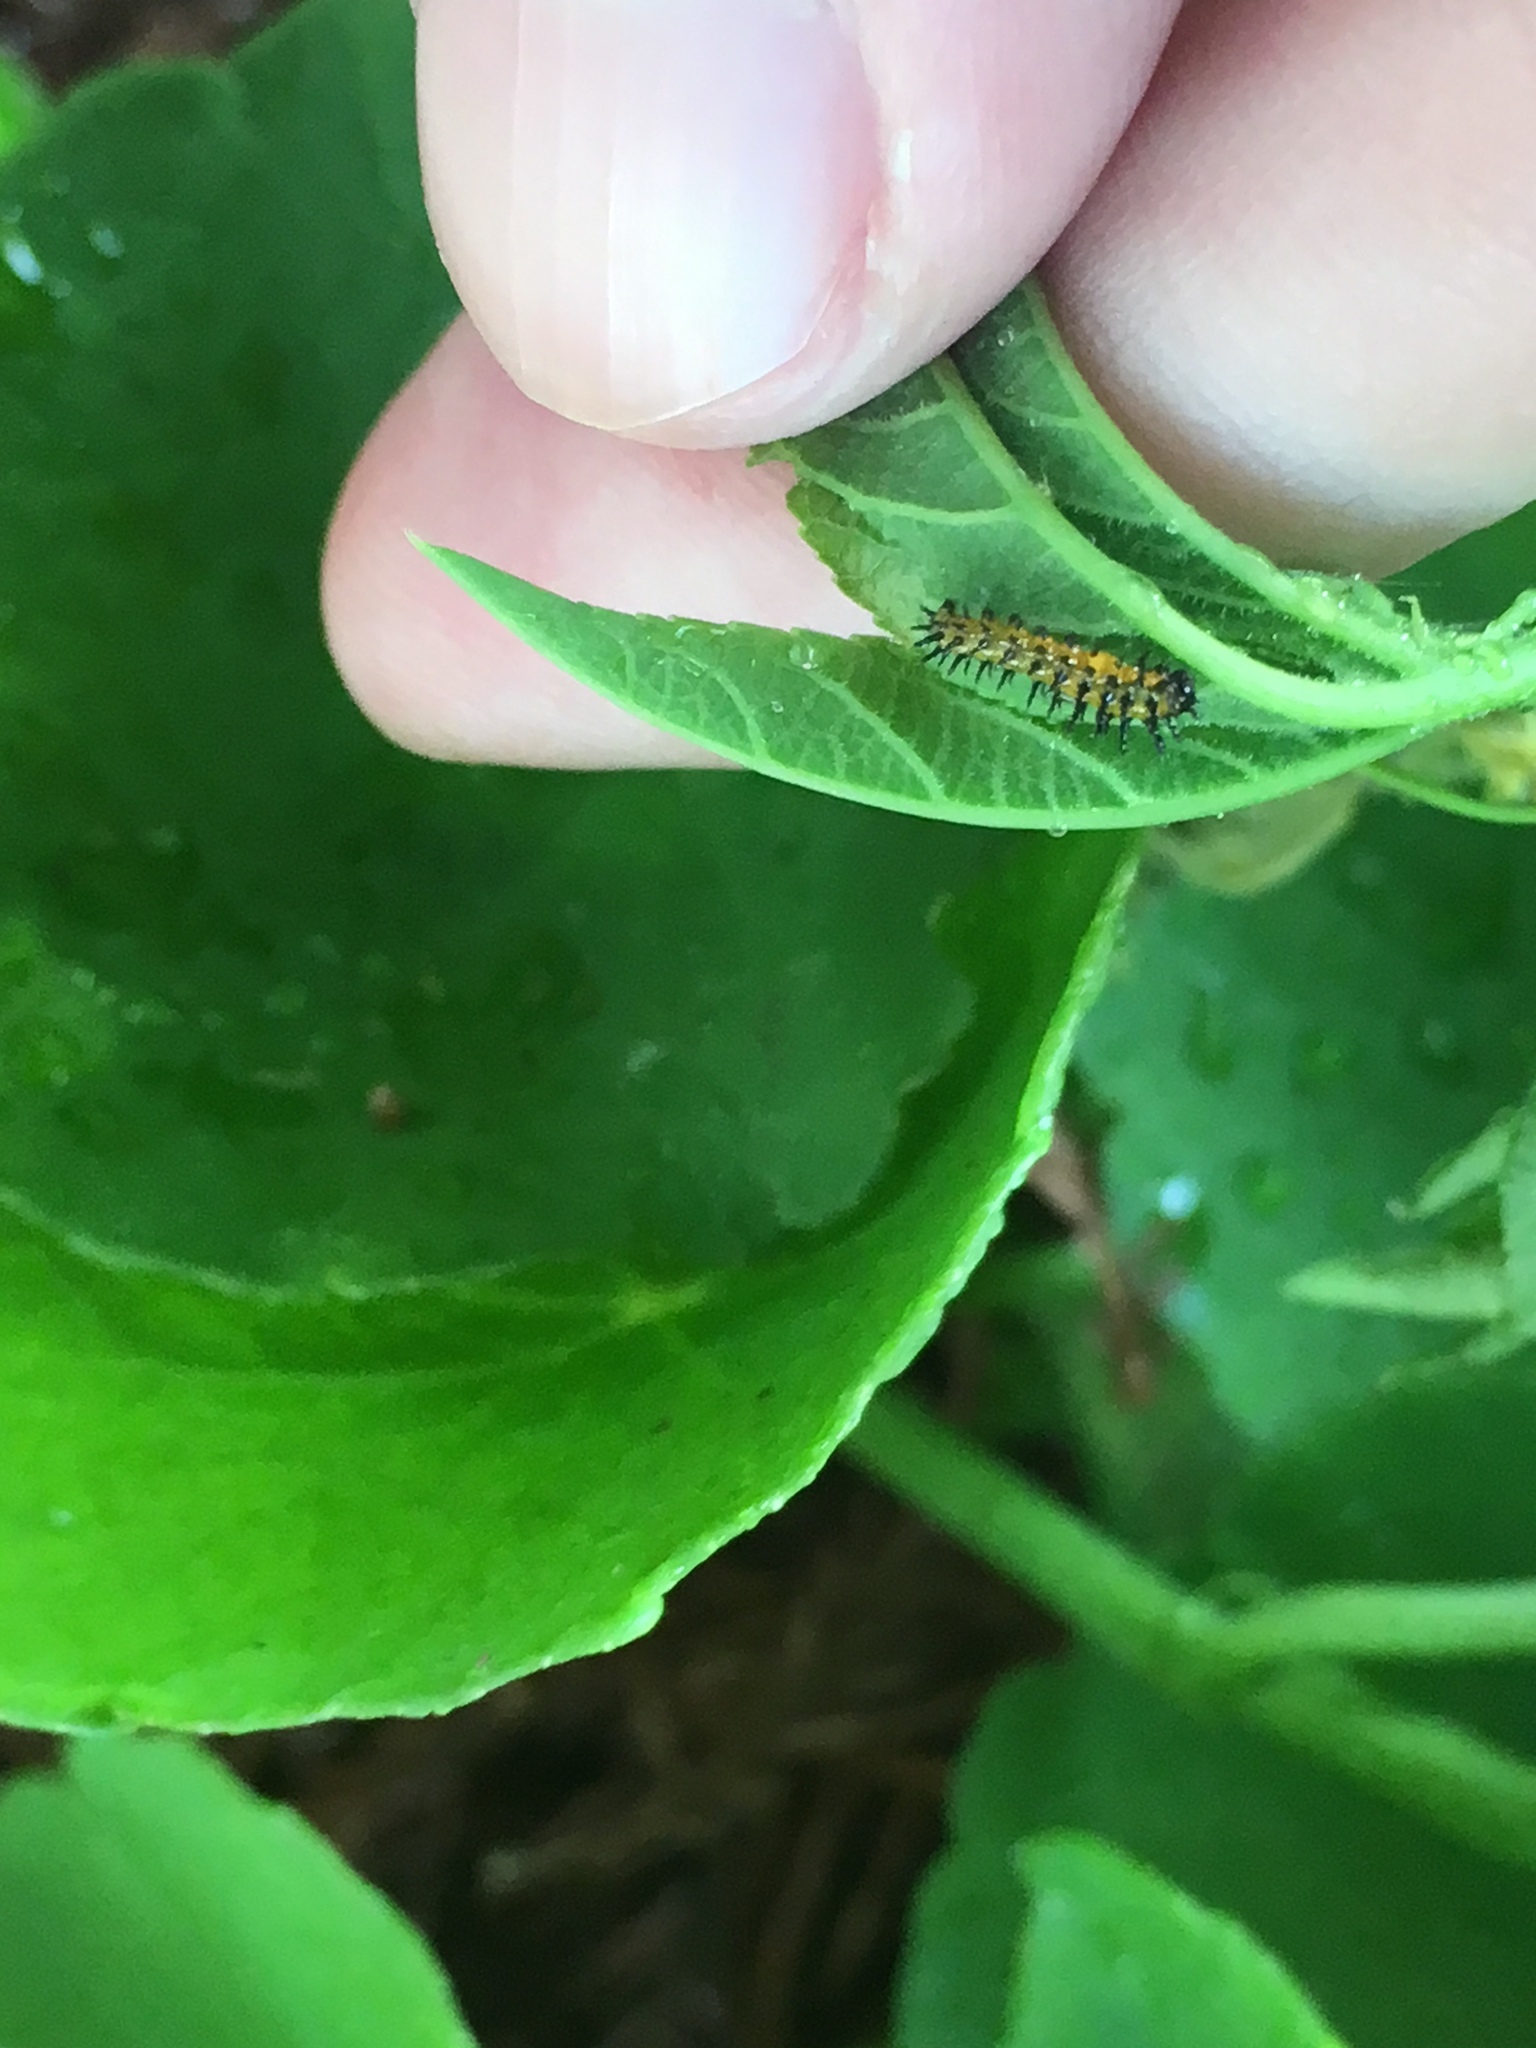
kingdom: Animalia
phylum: Arthropoda
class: Insecta
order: Lepidoptera
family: Nymphalidae
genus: Dione
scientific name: Dione vanillae
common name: Gulf fritillary
